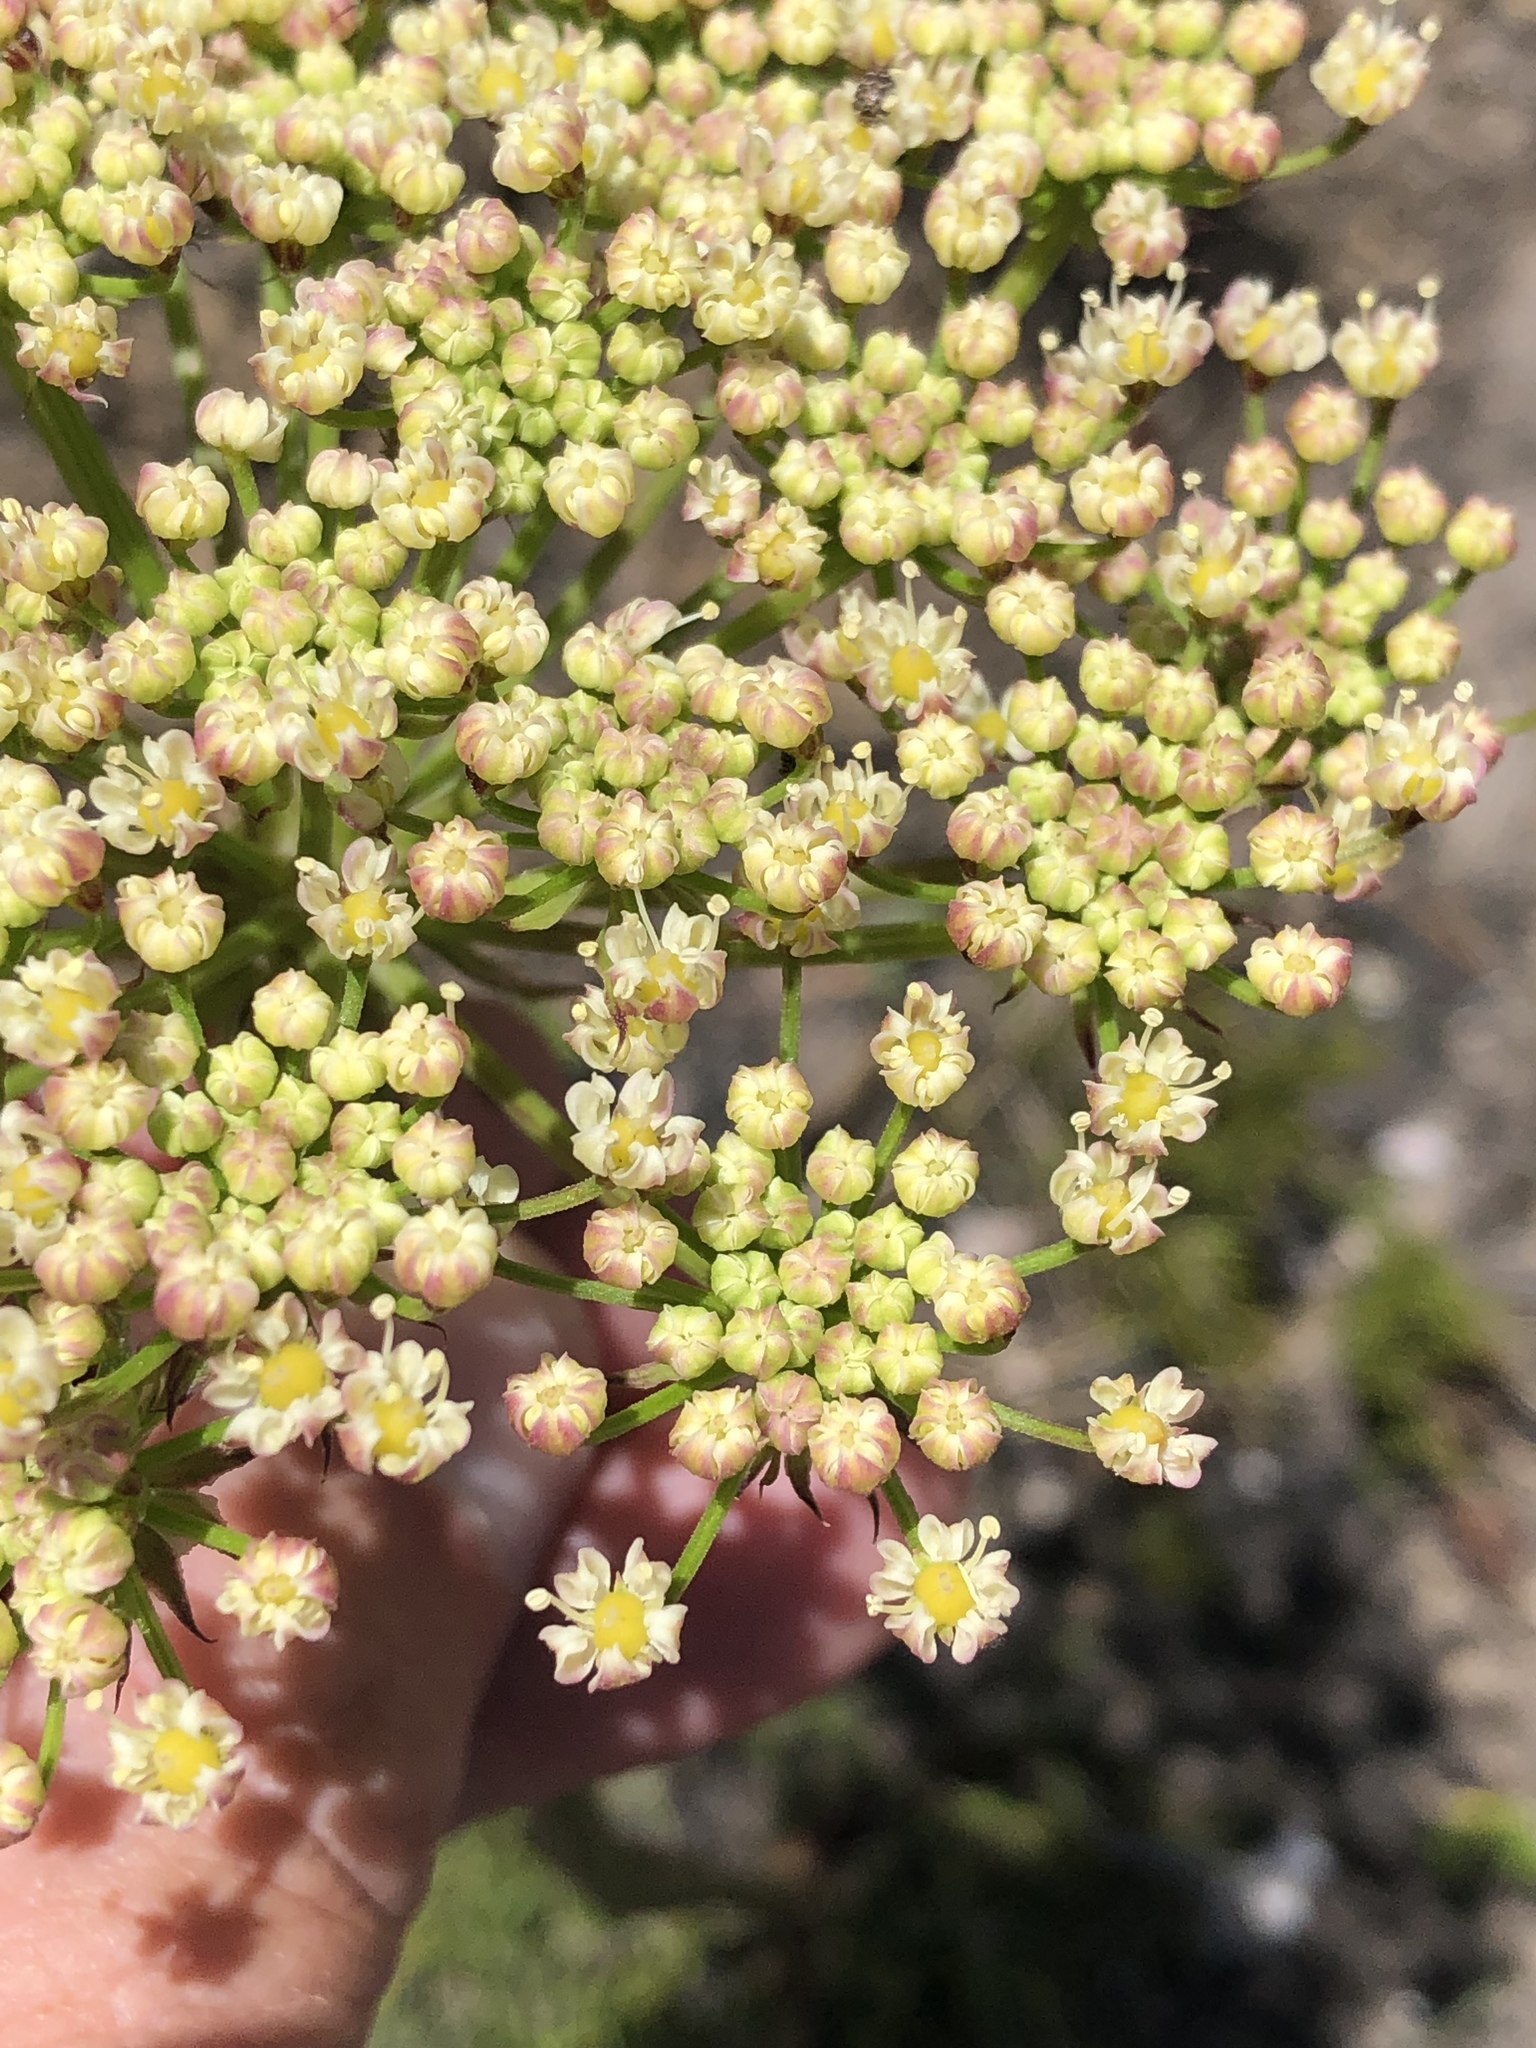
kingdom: Plantae
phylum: Tracheophyta
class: Magnoliopsida
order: Apiales
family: Apiaceae
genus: Nanobubon
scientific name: Nanobubon capillaceum
